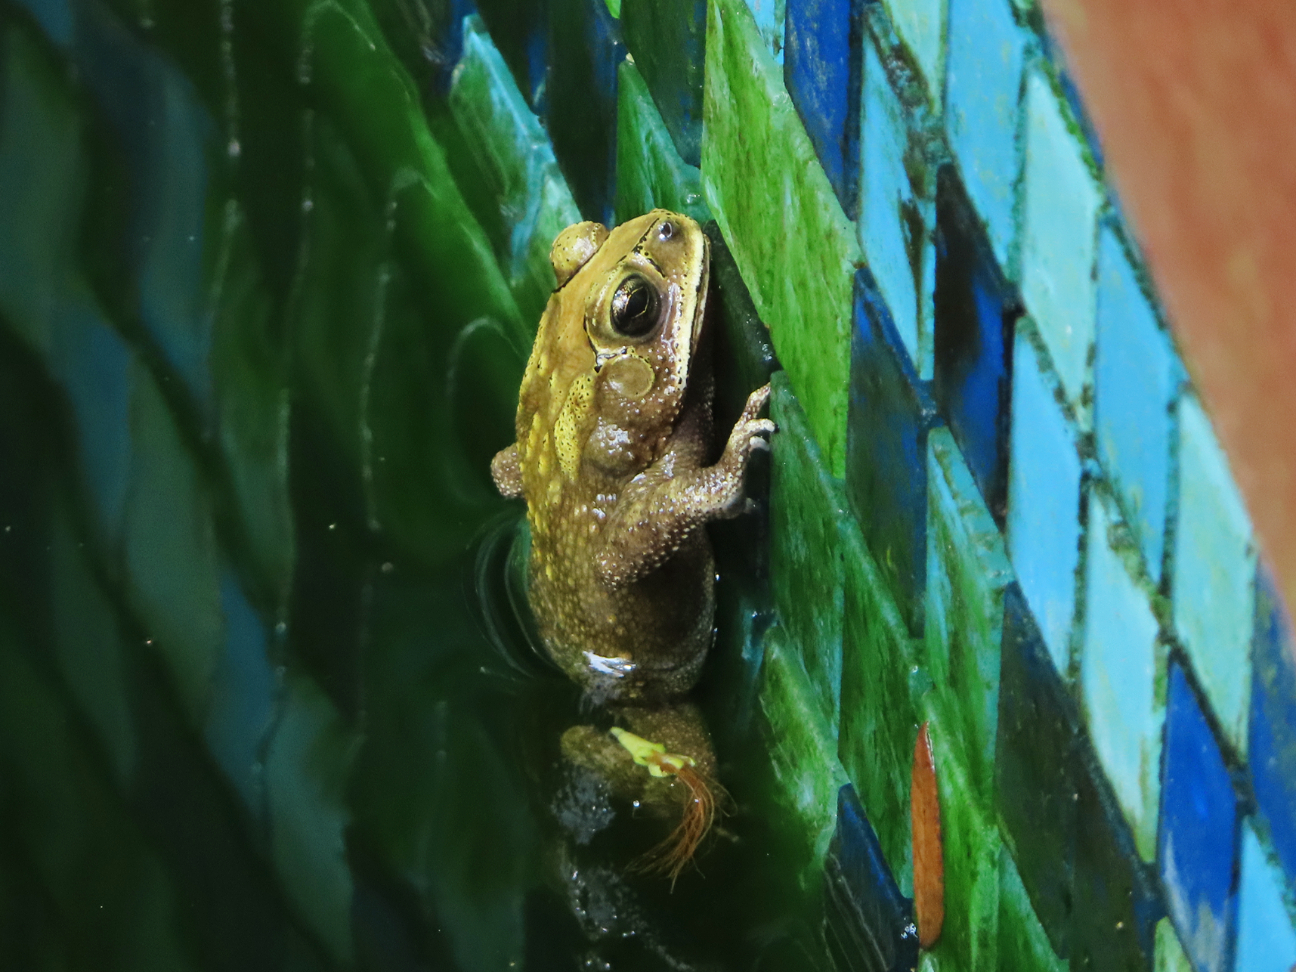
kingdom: Animalia
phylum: Chordata
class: Amphibia
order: Anura
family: Bufonidae
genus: Duttaphrynus
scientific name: Duttaphrynus melanostictus
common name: Common sunda toad
